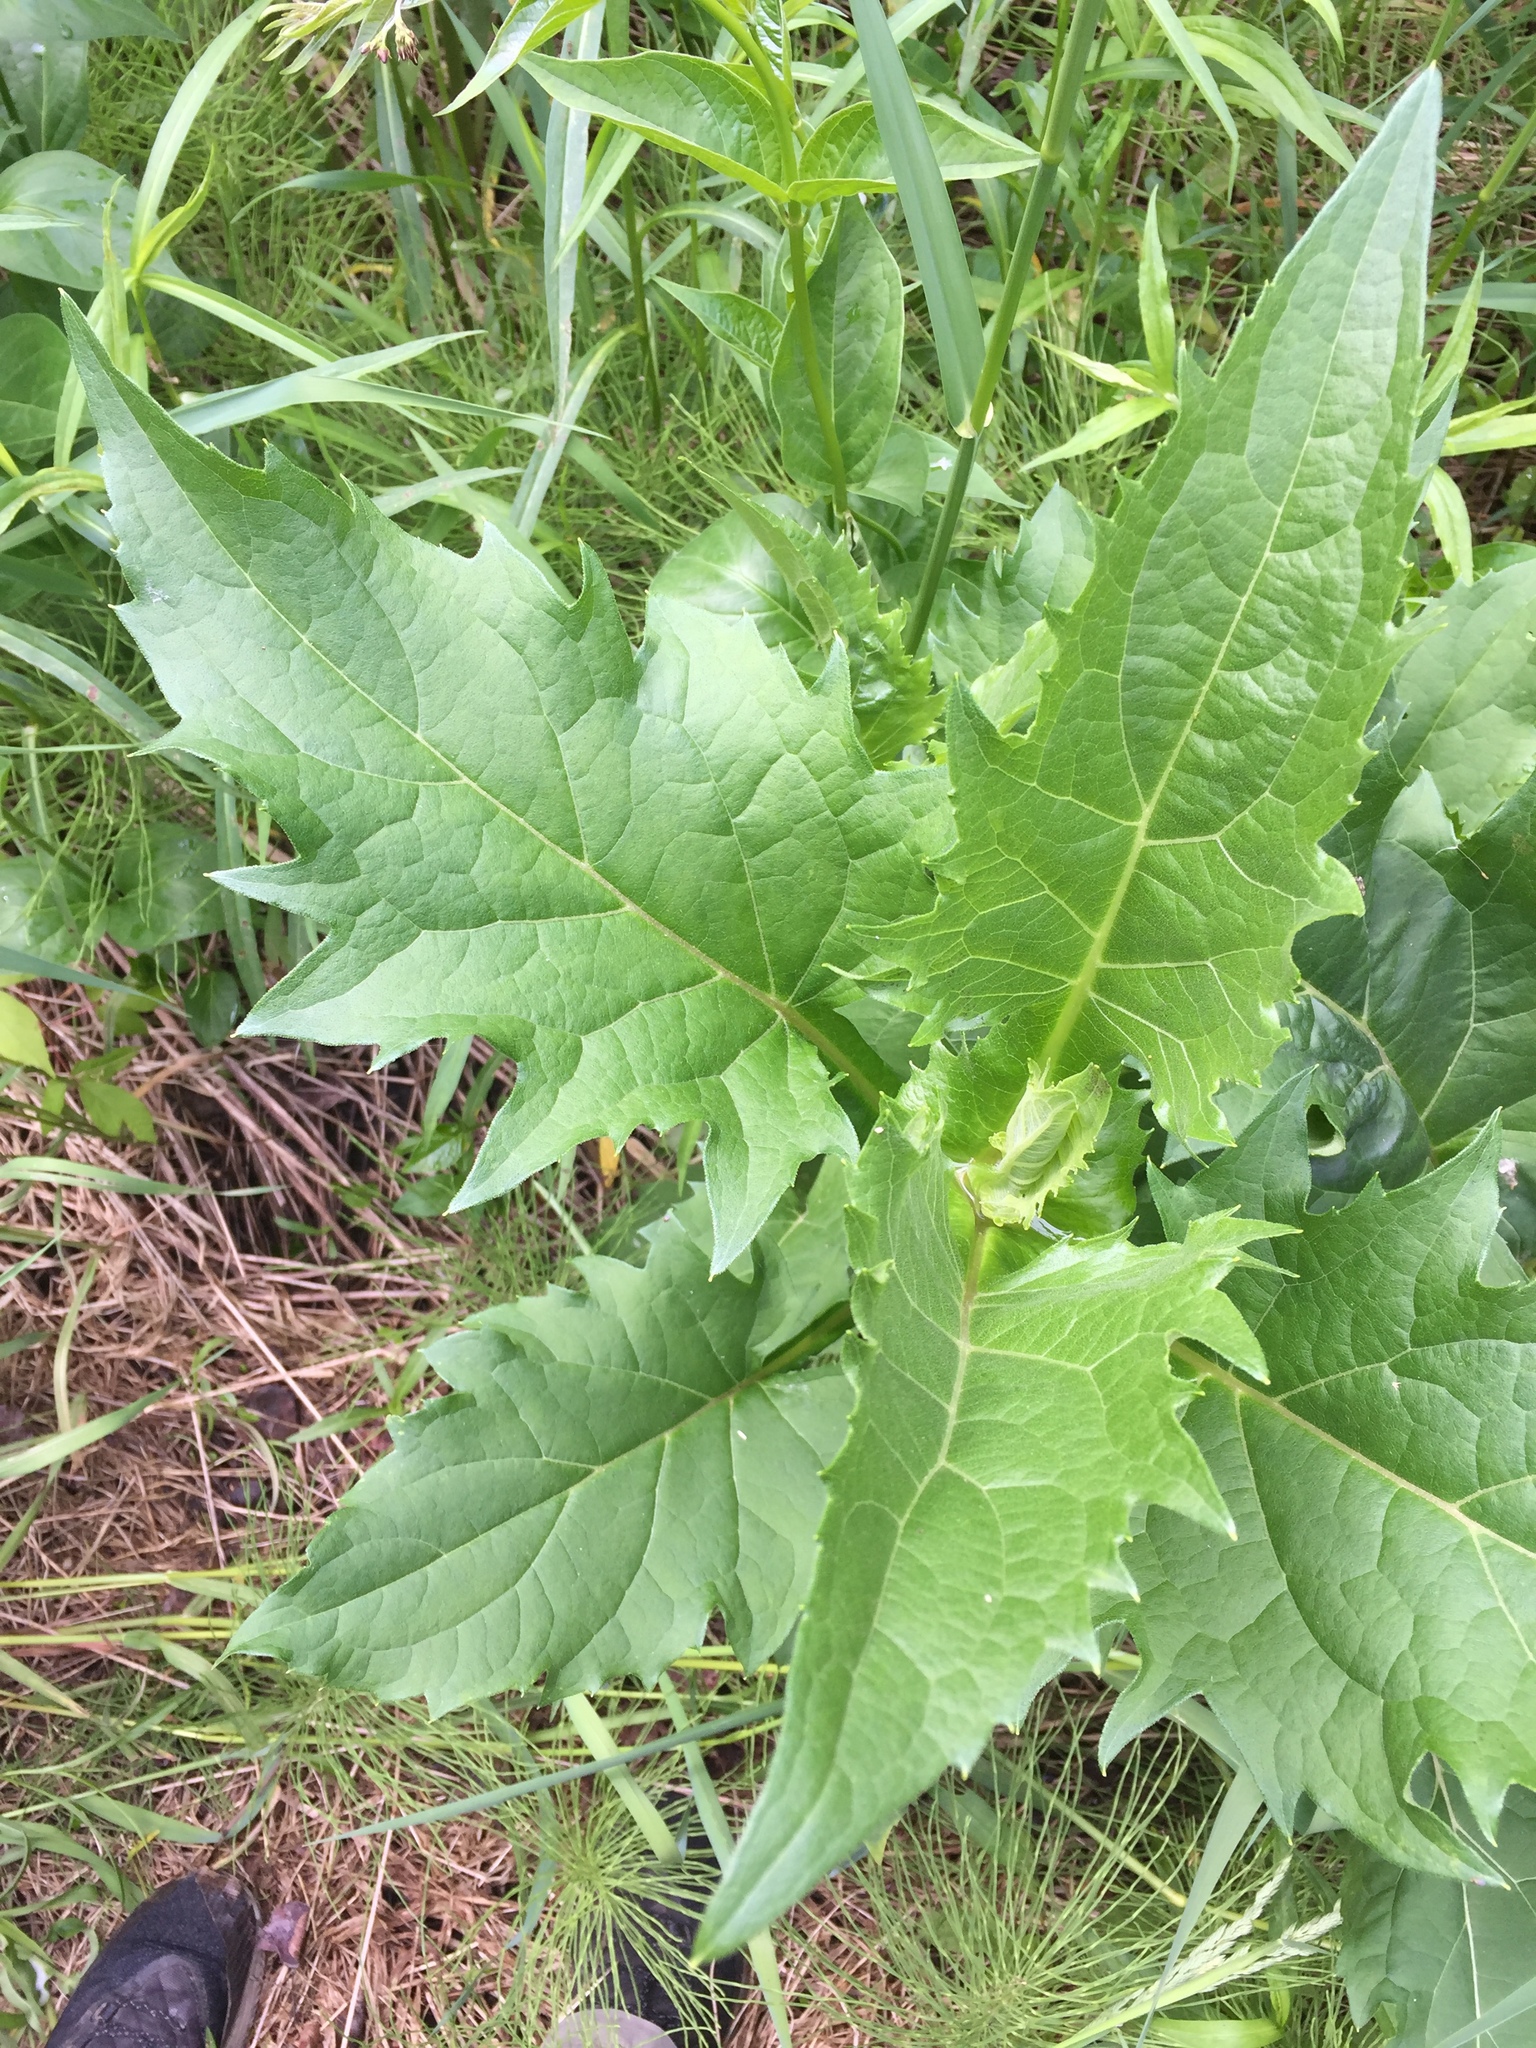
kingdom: Plantae
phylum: Tracheophyta
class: Magnoliopsida
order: Asterales
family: Asteraceae
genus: Silphium
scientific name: Silphium perfoliatum
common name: Cup-plant
